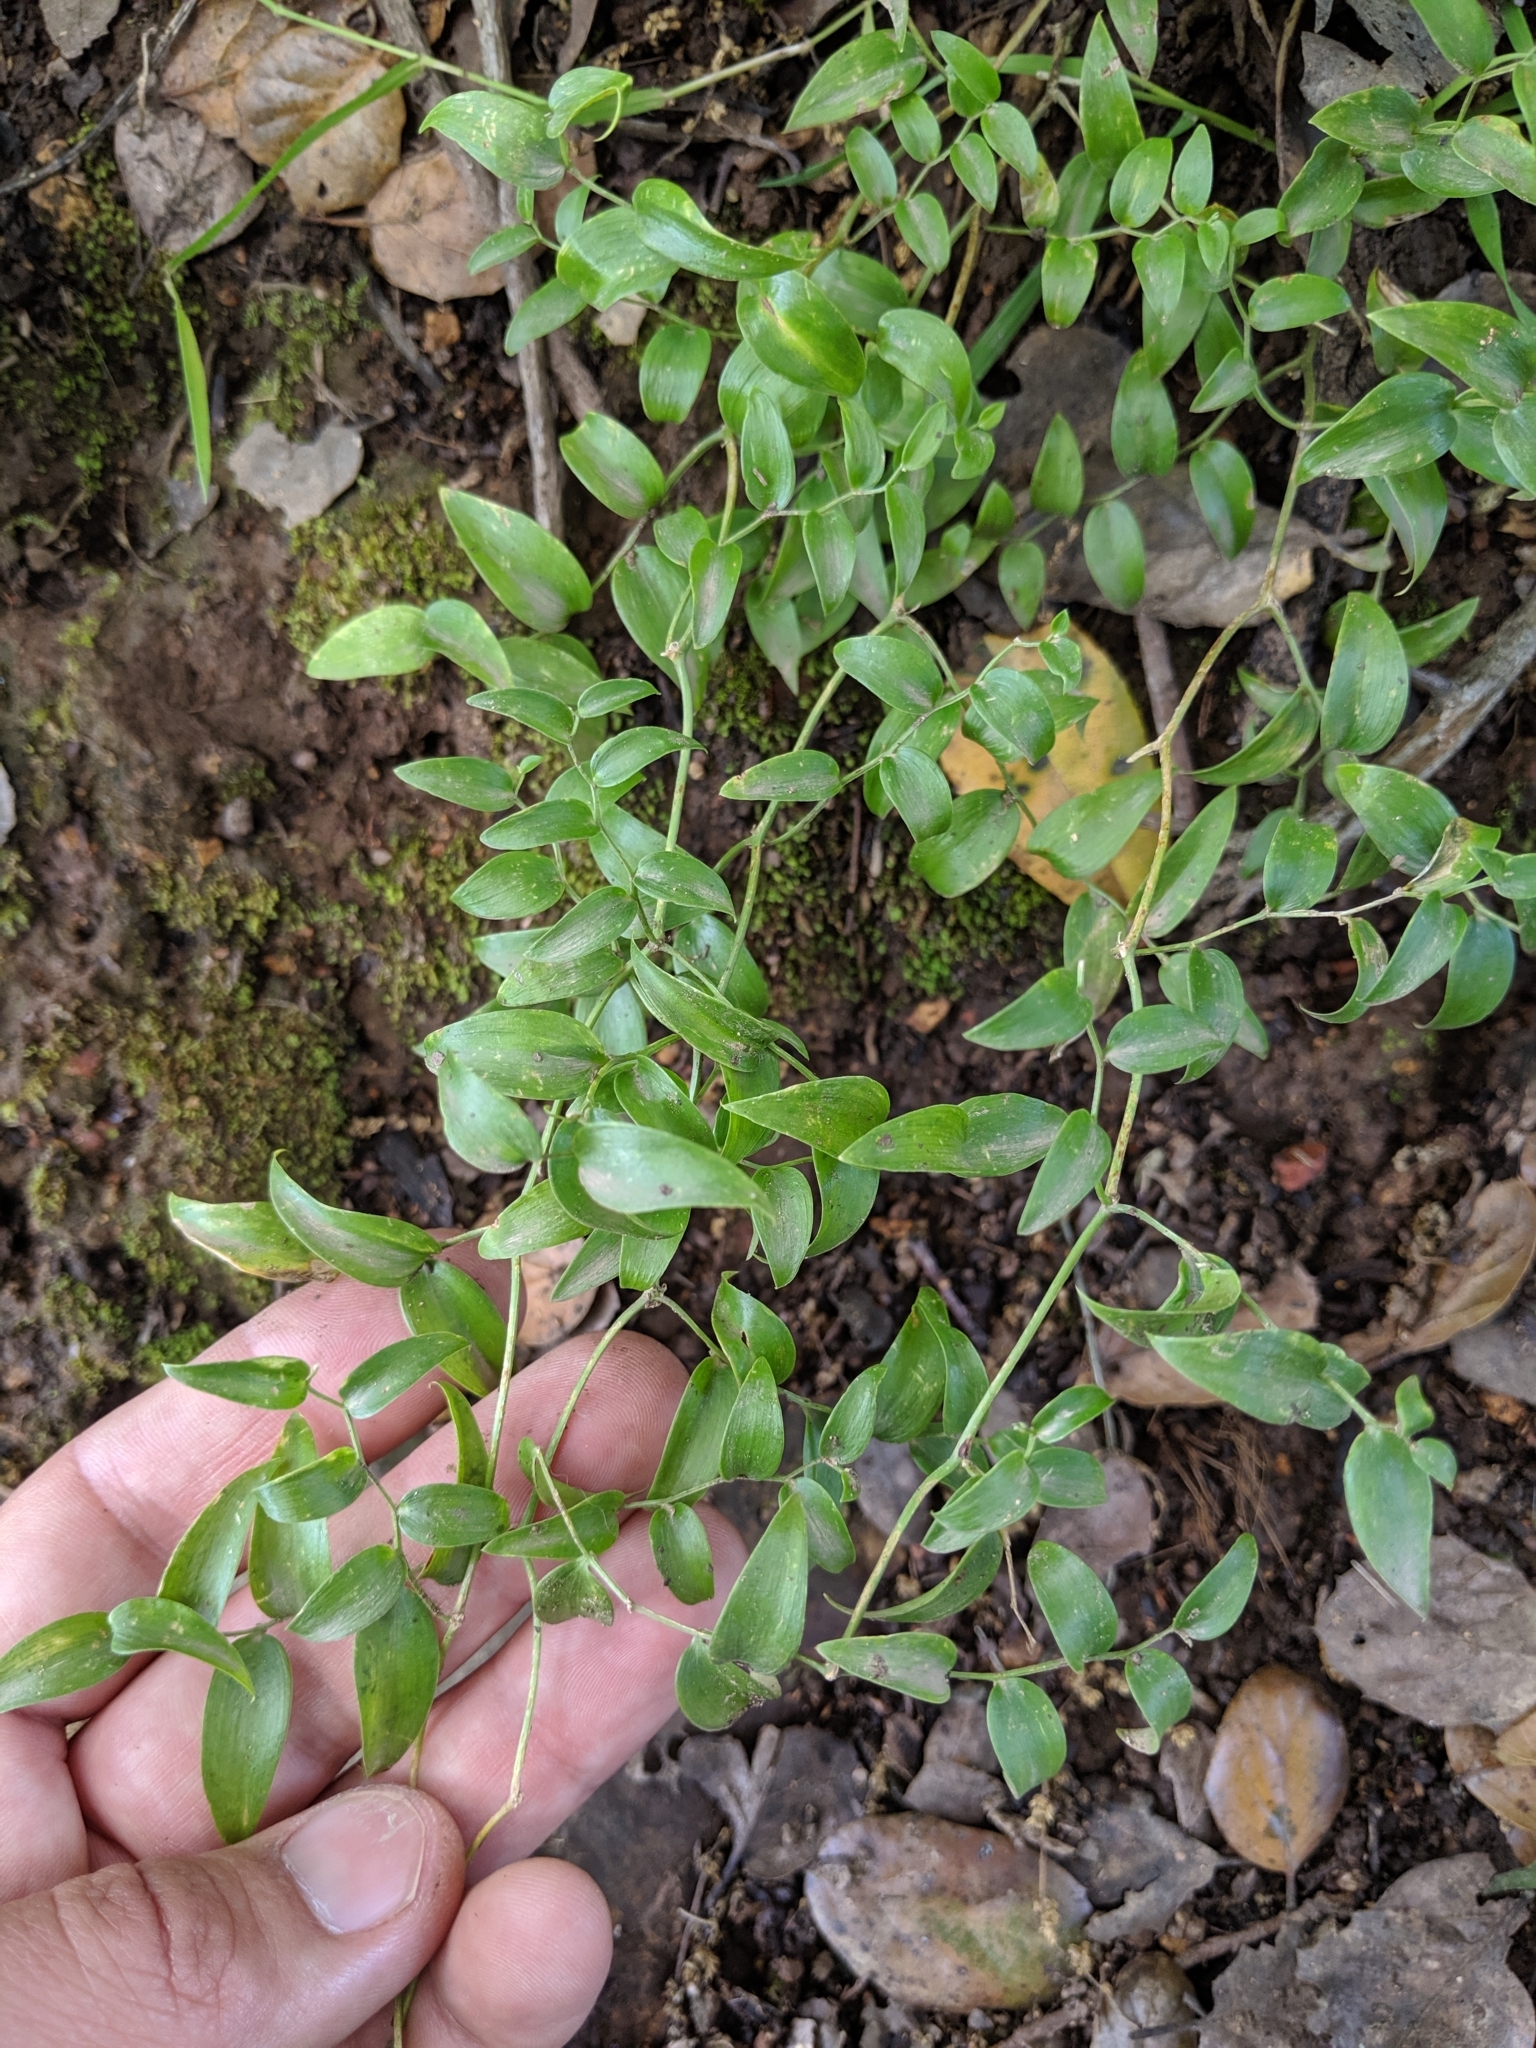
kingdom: Plantae
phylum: Tracheophyta
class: Liliopsida
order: Asparagales
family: Asparagaceae
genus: Asparagus
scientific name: Asparagus asparagoides
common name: African asparagus fern
